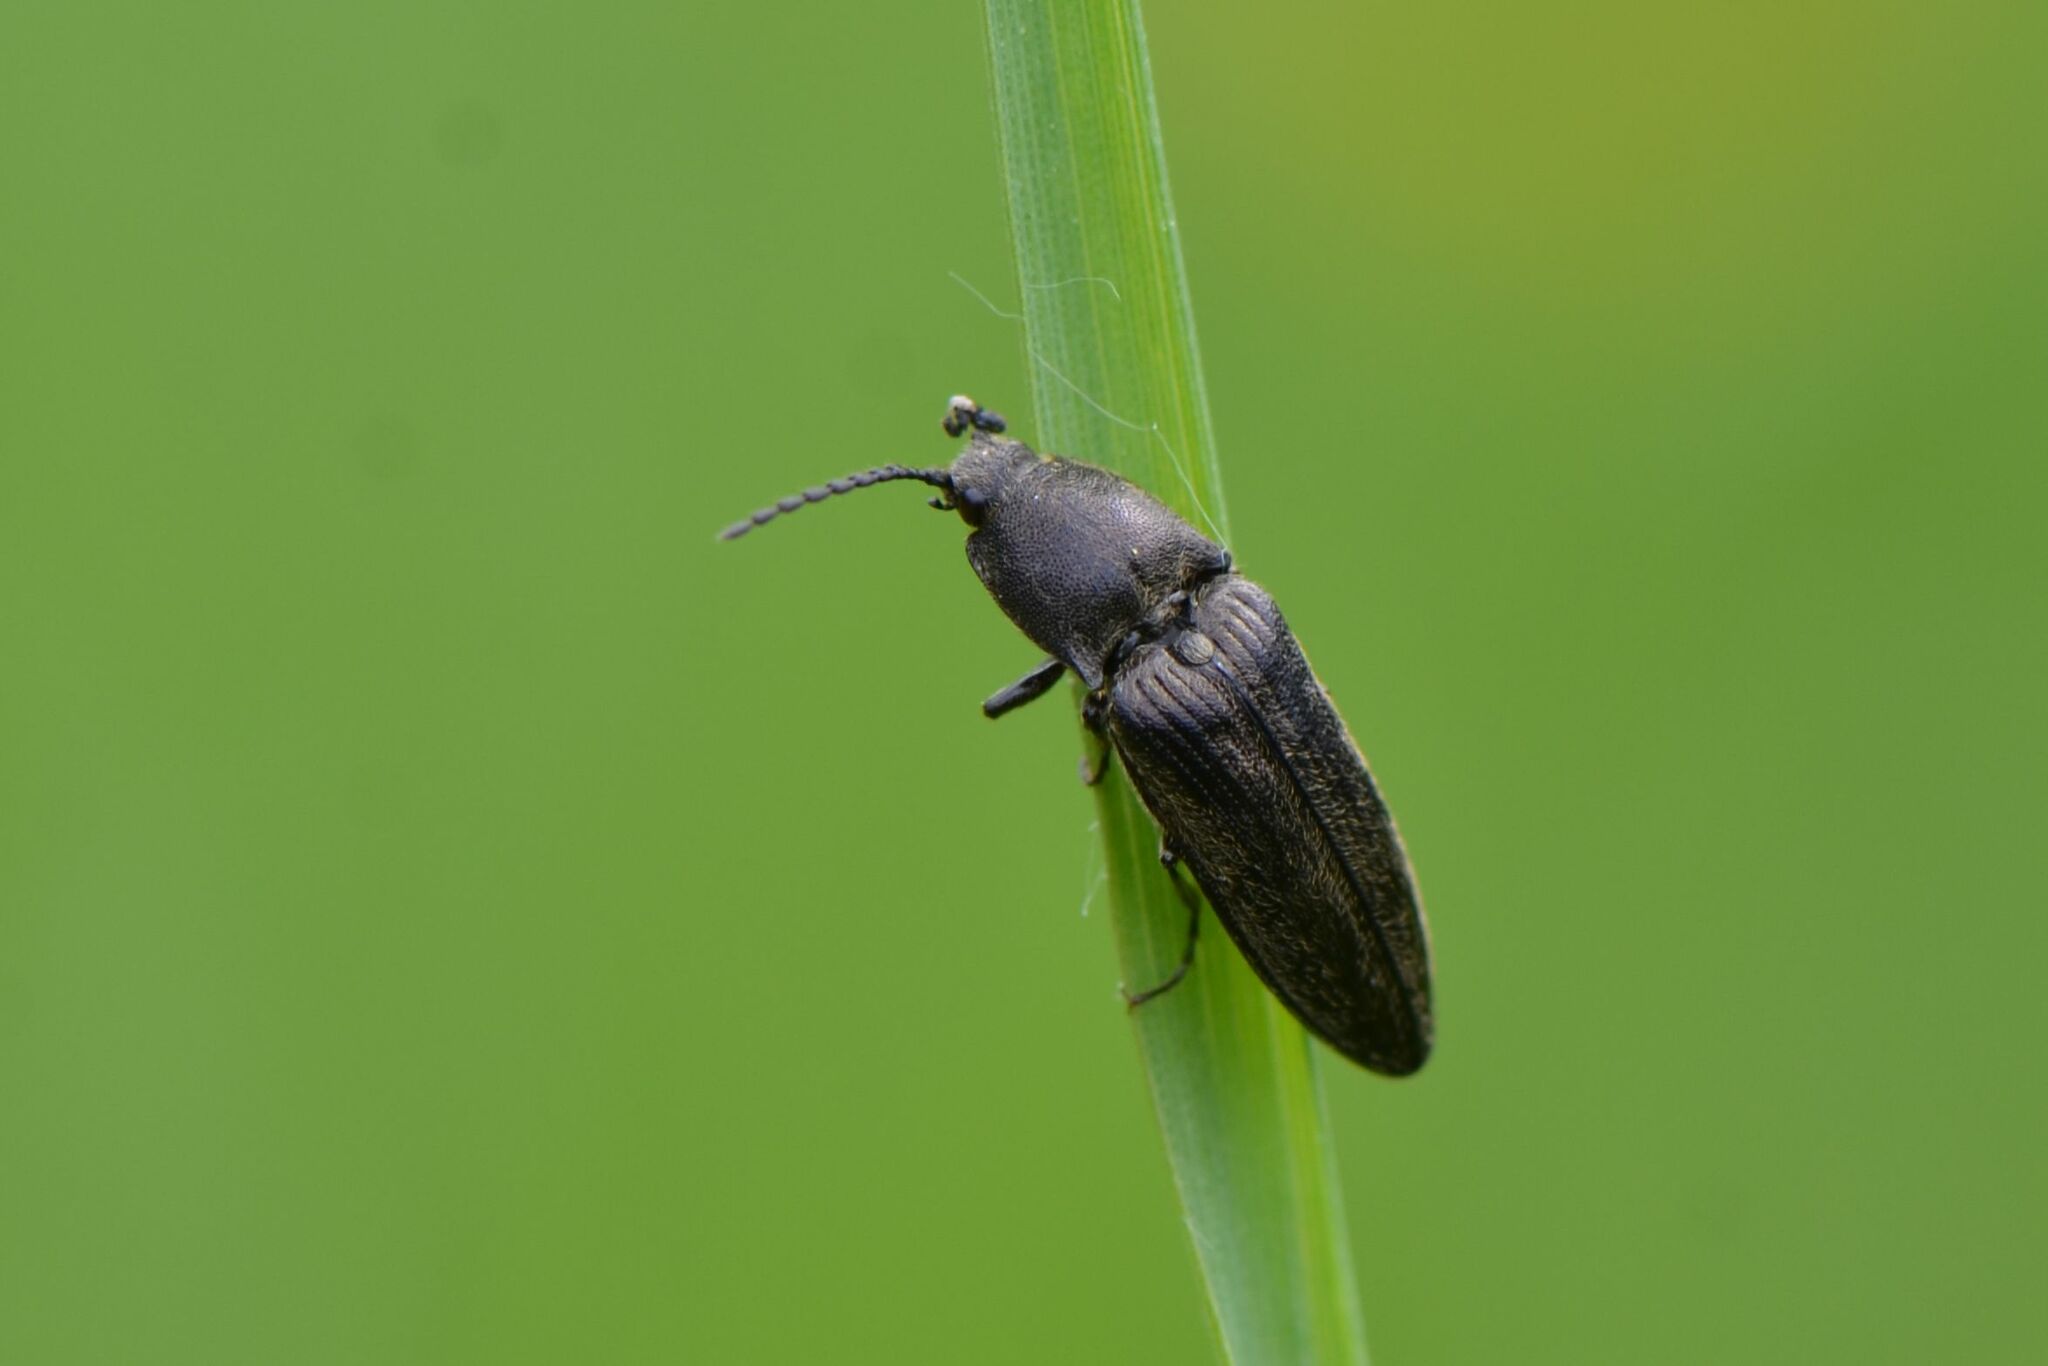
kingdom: Animalia
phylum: Arthropoda
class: Insecta
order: Coleoptera
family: Elateridae
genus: Cidnopus
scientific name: Cidnopus pilosus
